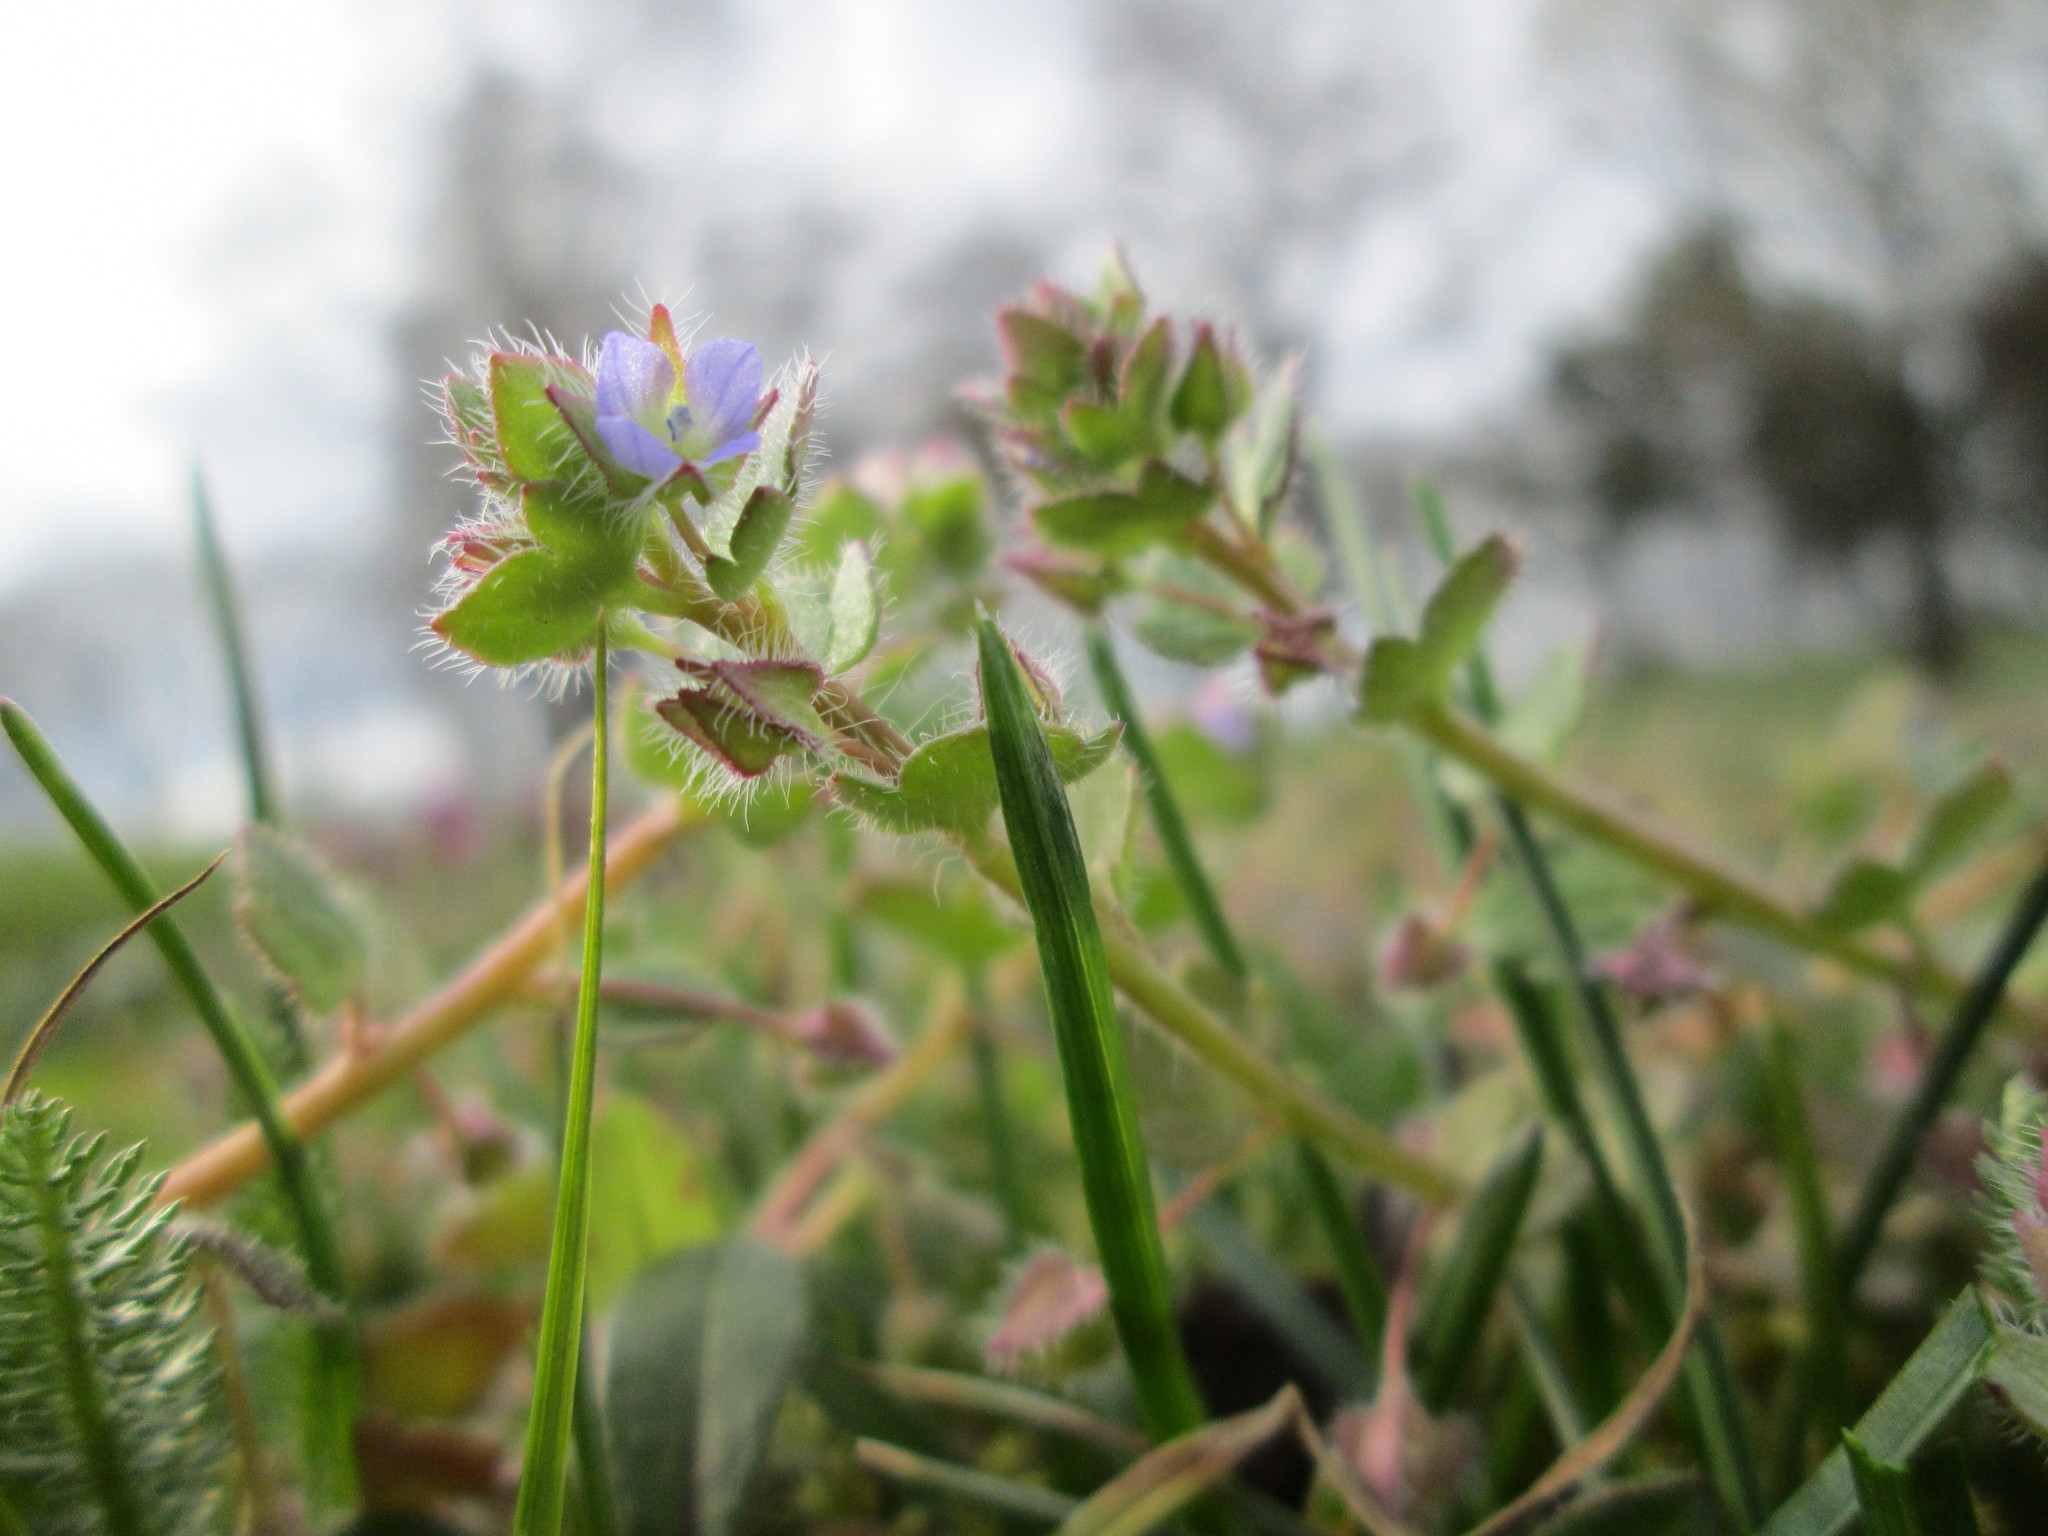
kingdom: Plantae
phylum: Tracheophyta
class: Magnoliopsida
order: Lamiales
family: Plantaginaceae
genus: Veronica
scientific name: Veronica hederifolia
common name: Ivy-leaved speedwell
